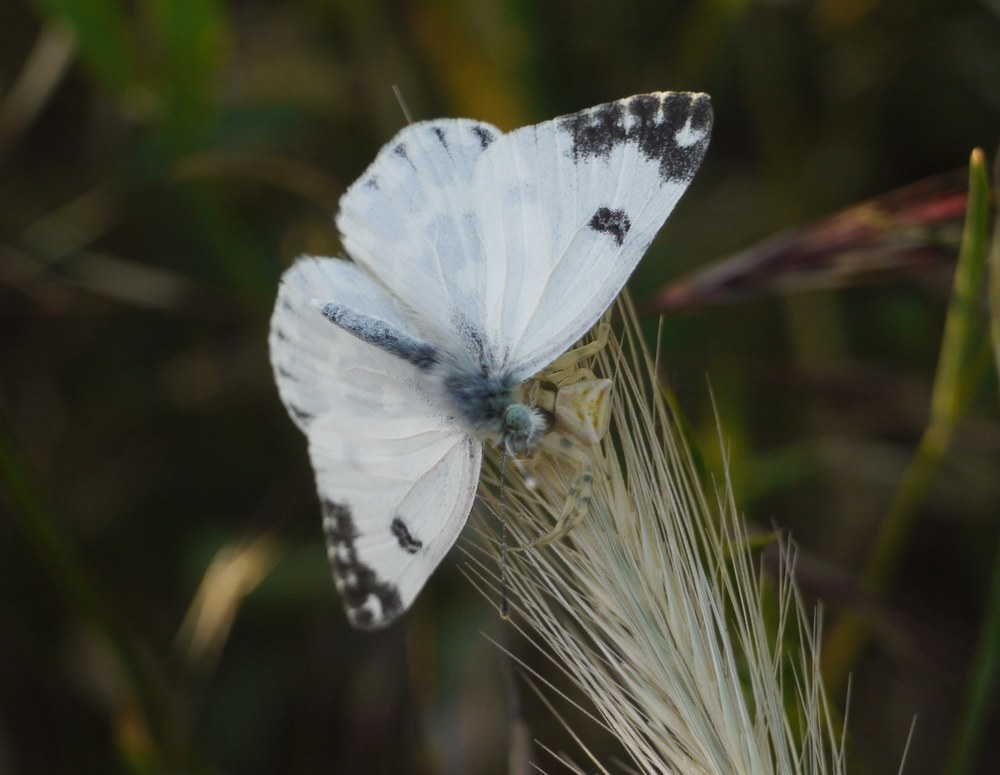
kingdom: Animalia
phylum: Arthropoda
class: Insecta
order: Lepidoptera
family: Pieridae
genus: Pontia
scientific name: Pontia edusa
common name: Eastern bath white
